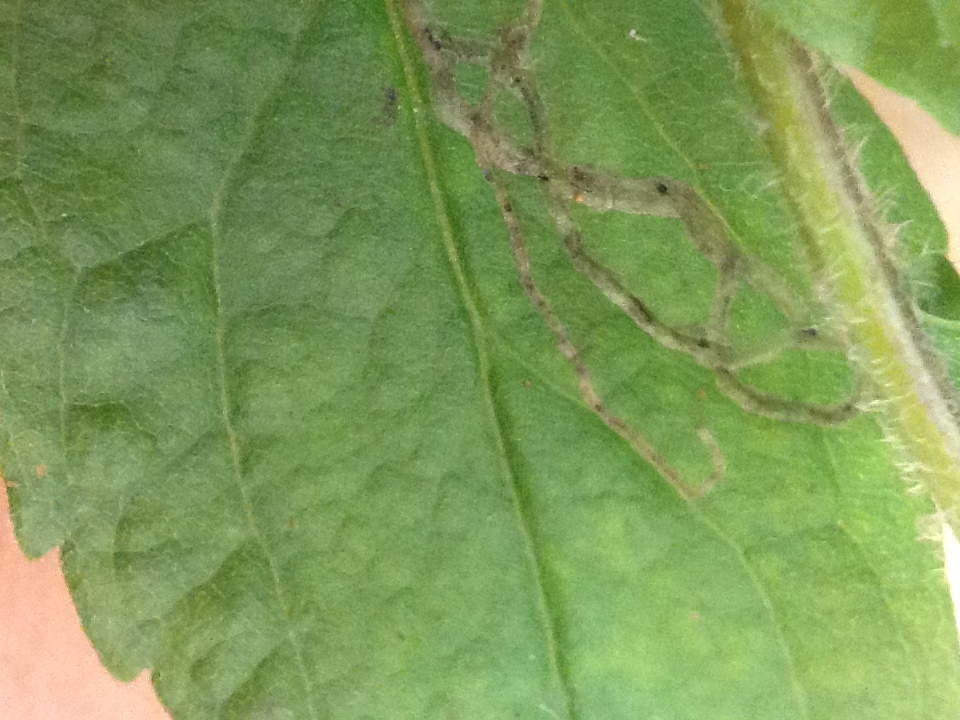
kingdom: Plantae
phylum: Tracheophyta
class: Magnoliopsida
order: Asterales
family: Asteraceae
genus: Solidago
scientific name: Solidago rugosa
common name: Rough-stemmed goldenrod
